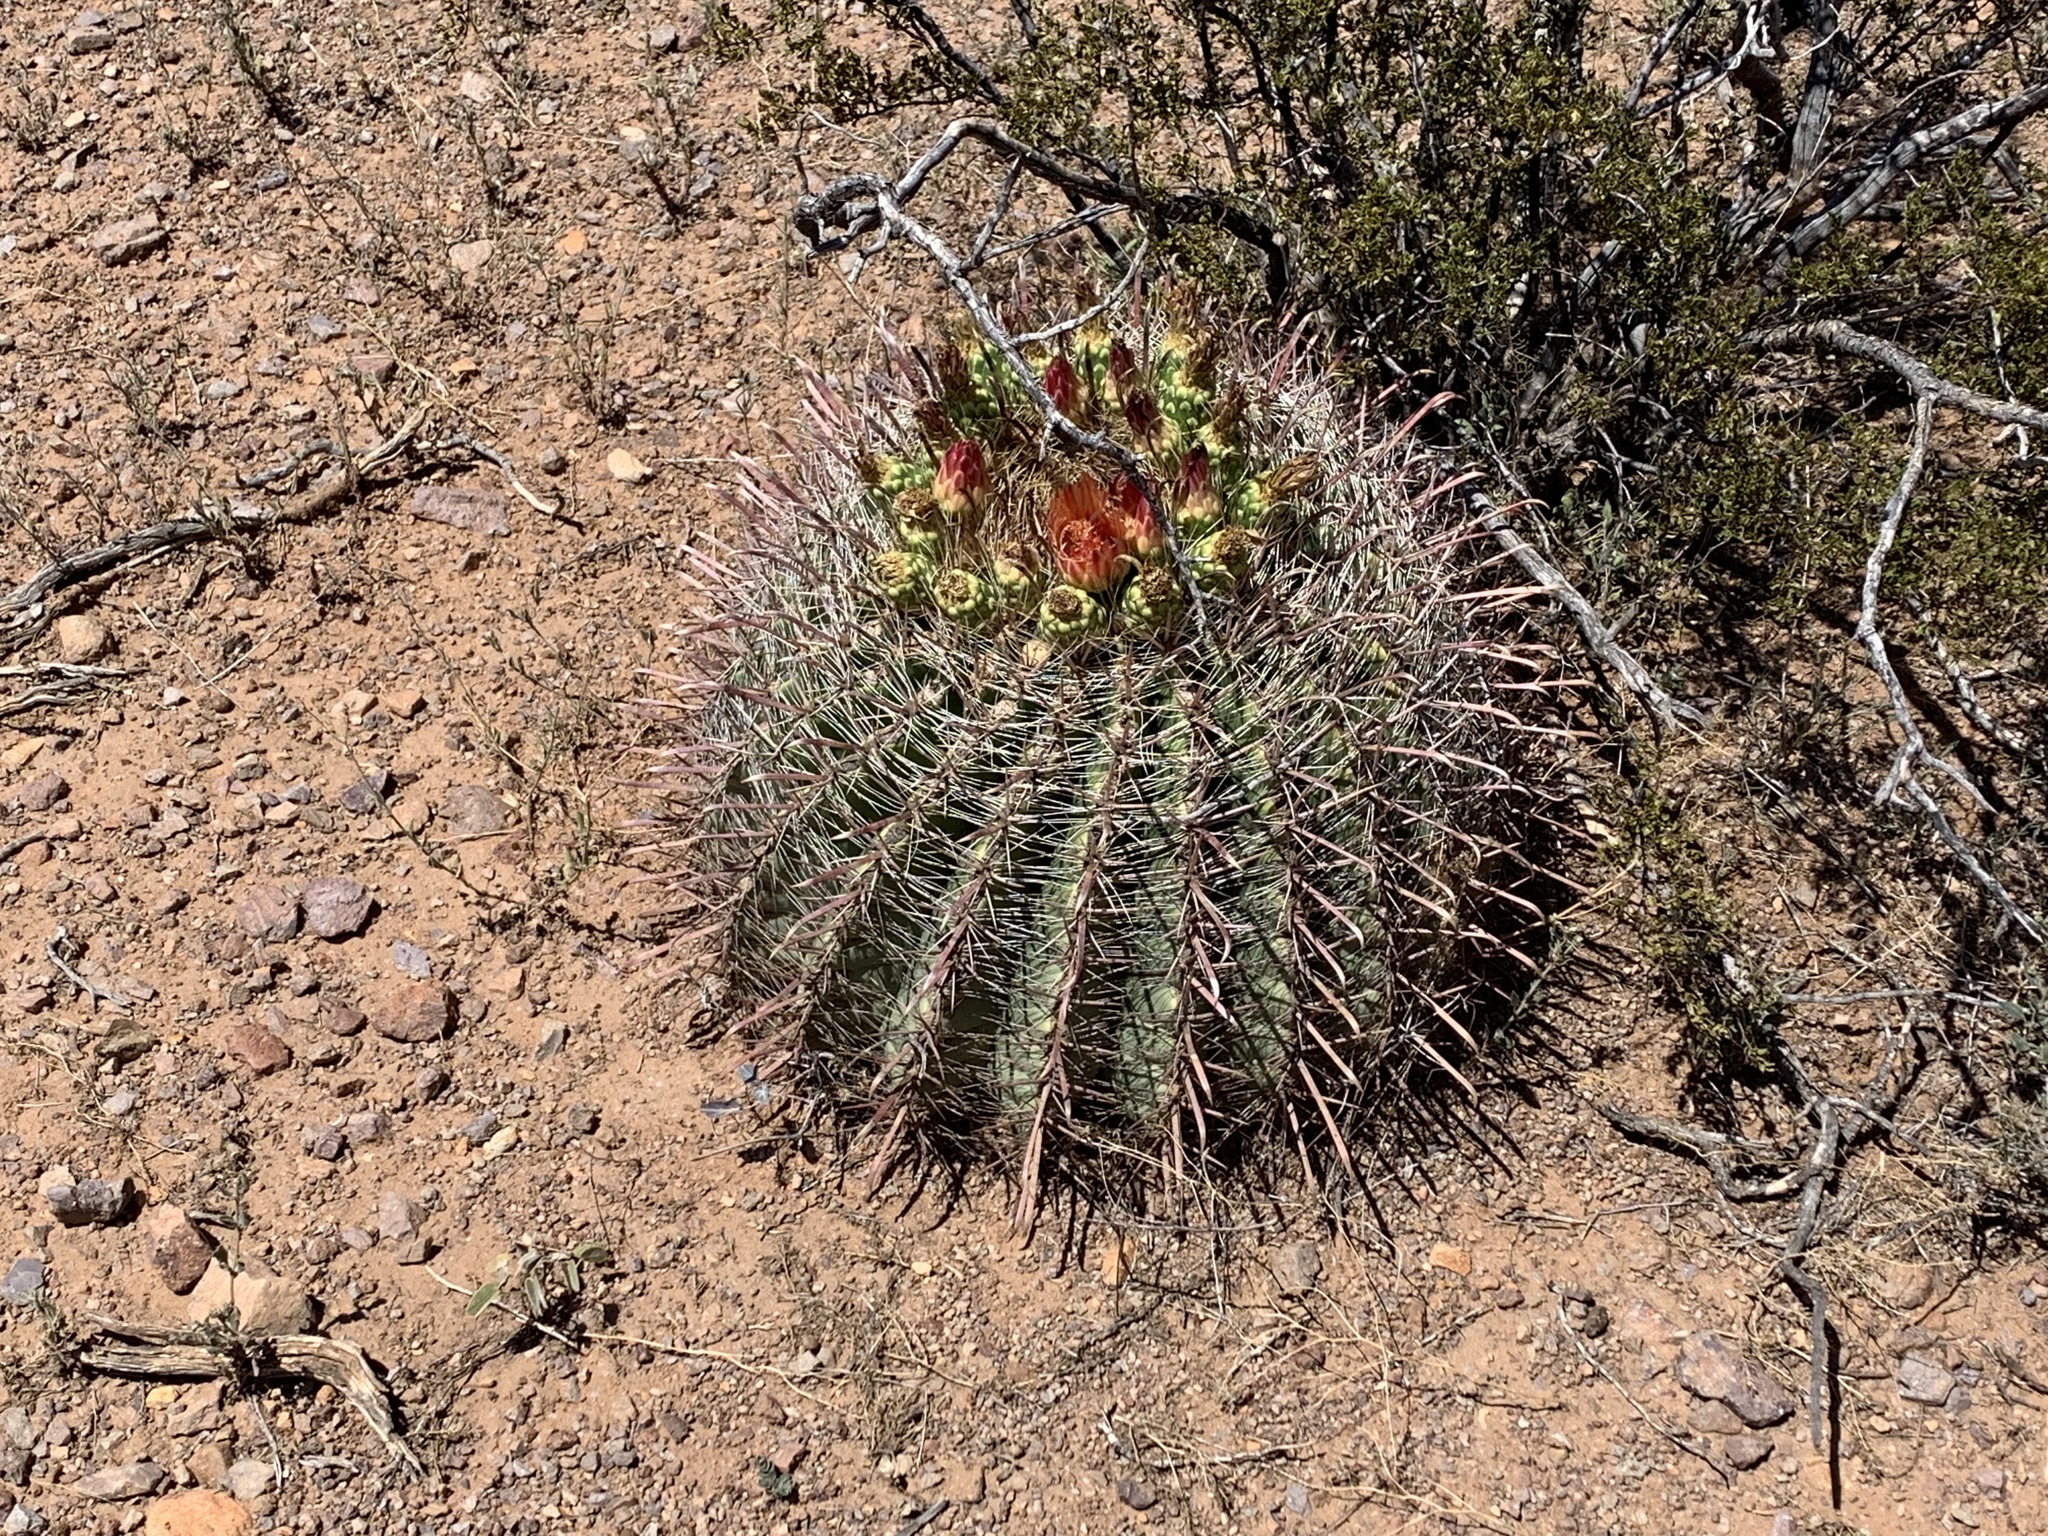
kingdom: Plantae
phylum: Tracheophyta
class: Magnoliopsida
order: Caryophyllales
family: Cactaceae
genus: Ferocactus
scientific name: Ferocactus wislizeni
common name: Candy barrel cactus
